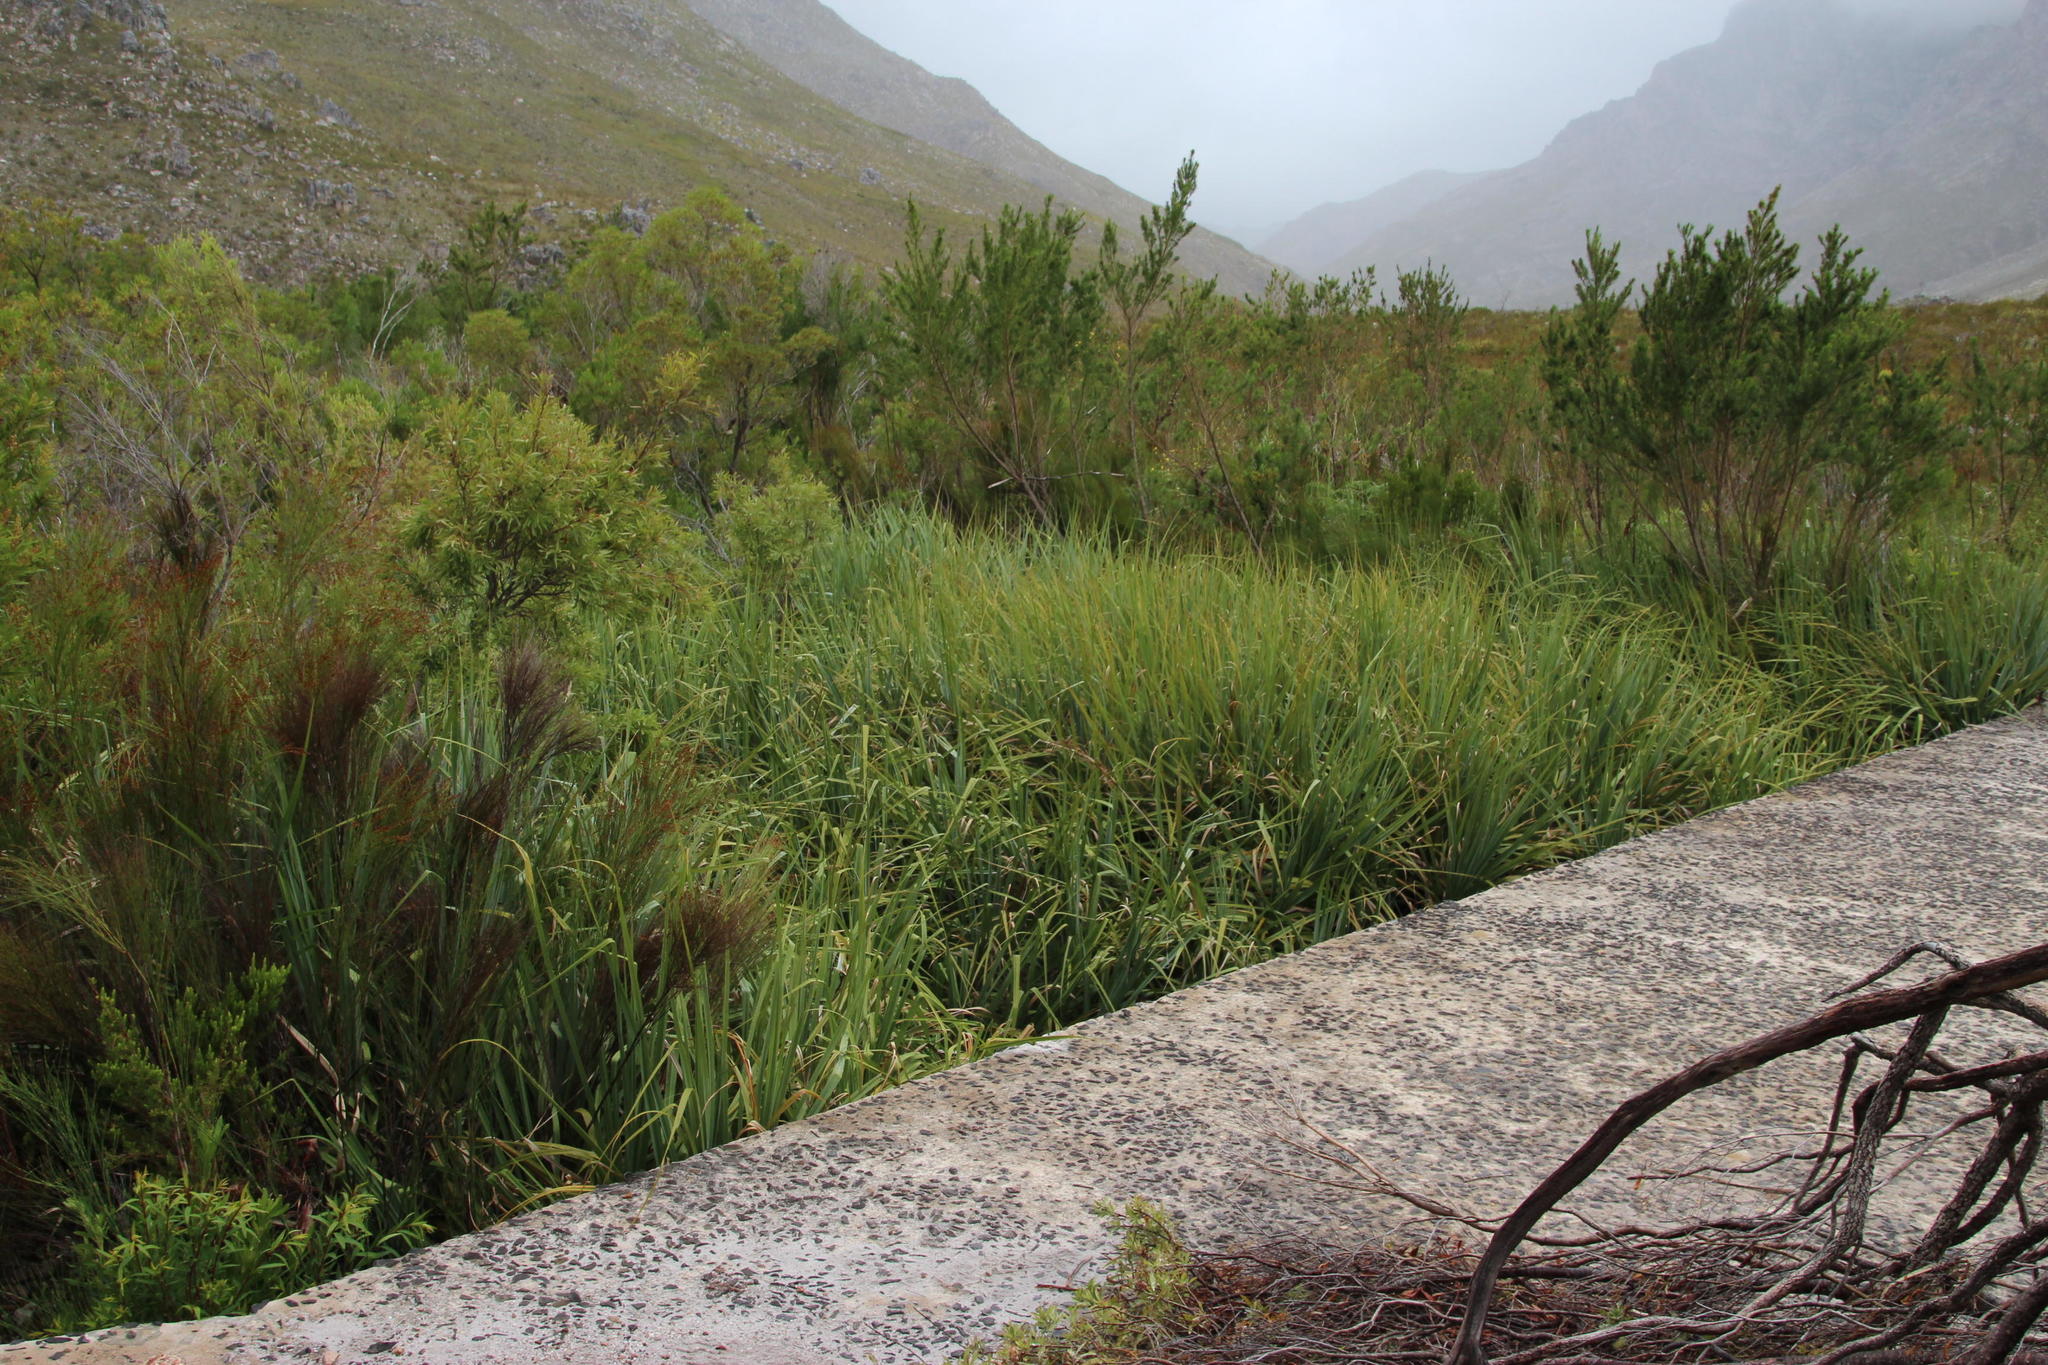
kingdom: Plantae
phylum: Tracheophyta
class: Liliopsida
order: Poales
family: Thurniaceae
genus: Prionium
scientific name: Prionium serratum
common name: Palmiet
